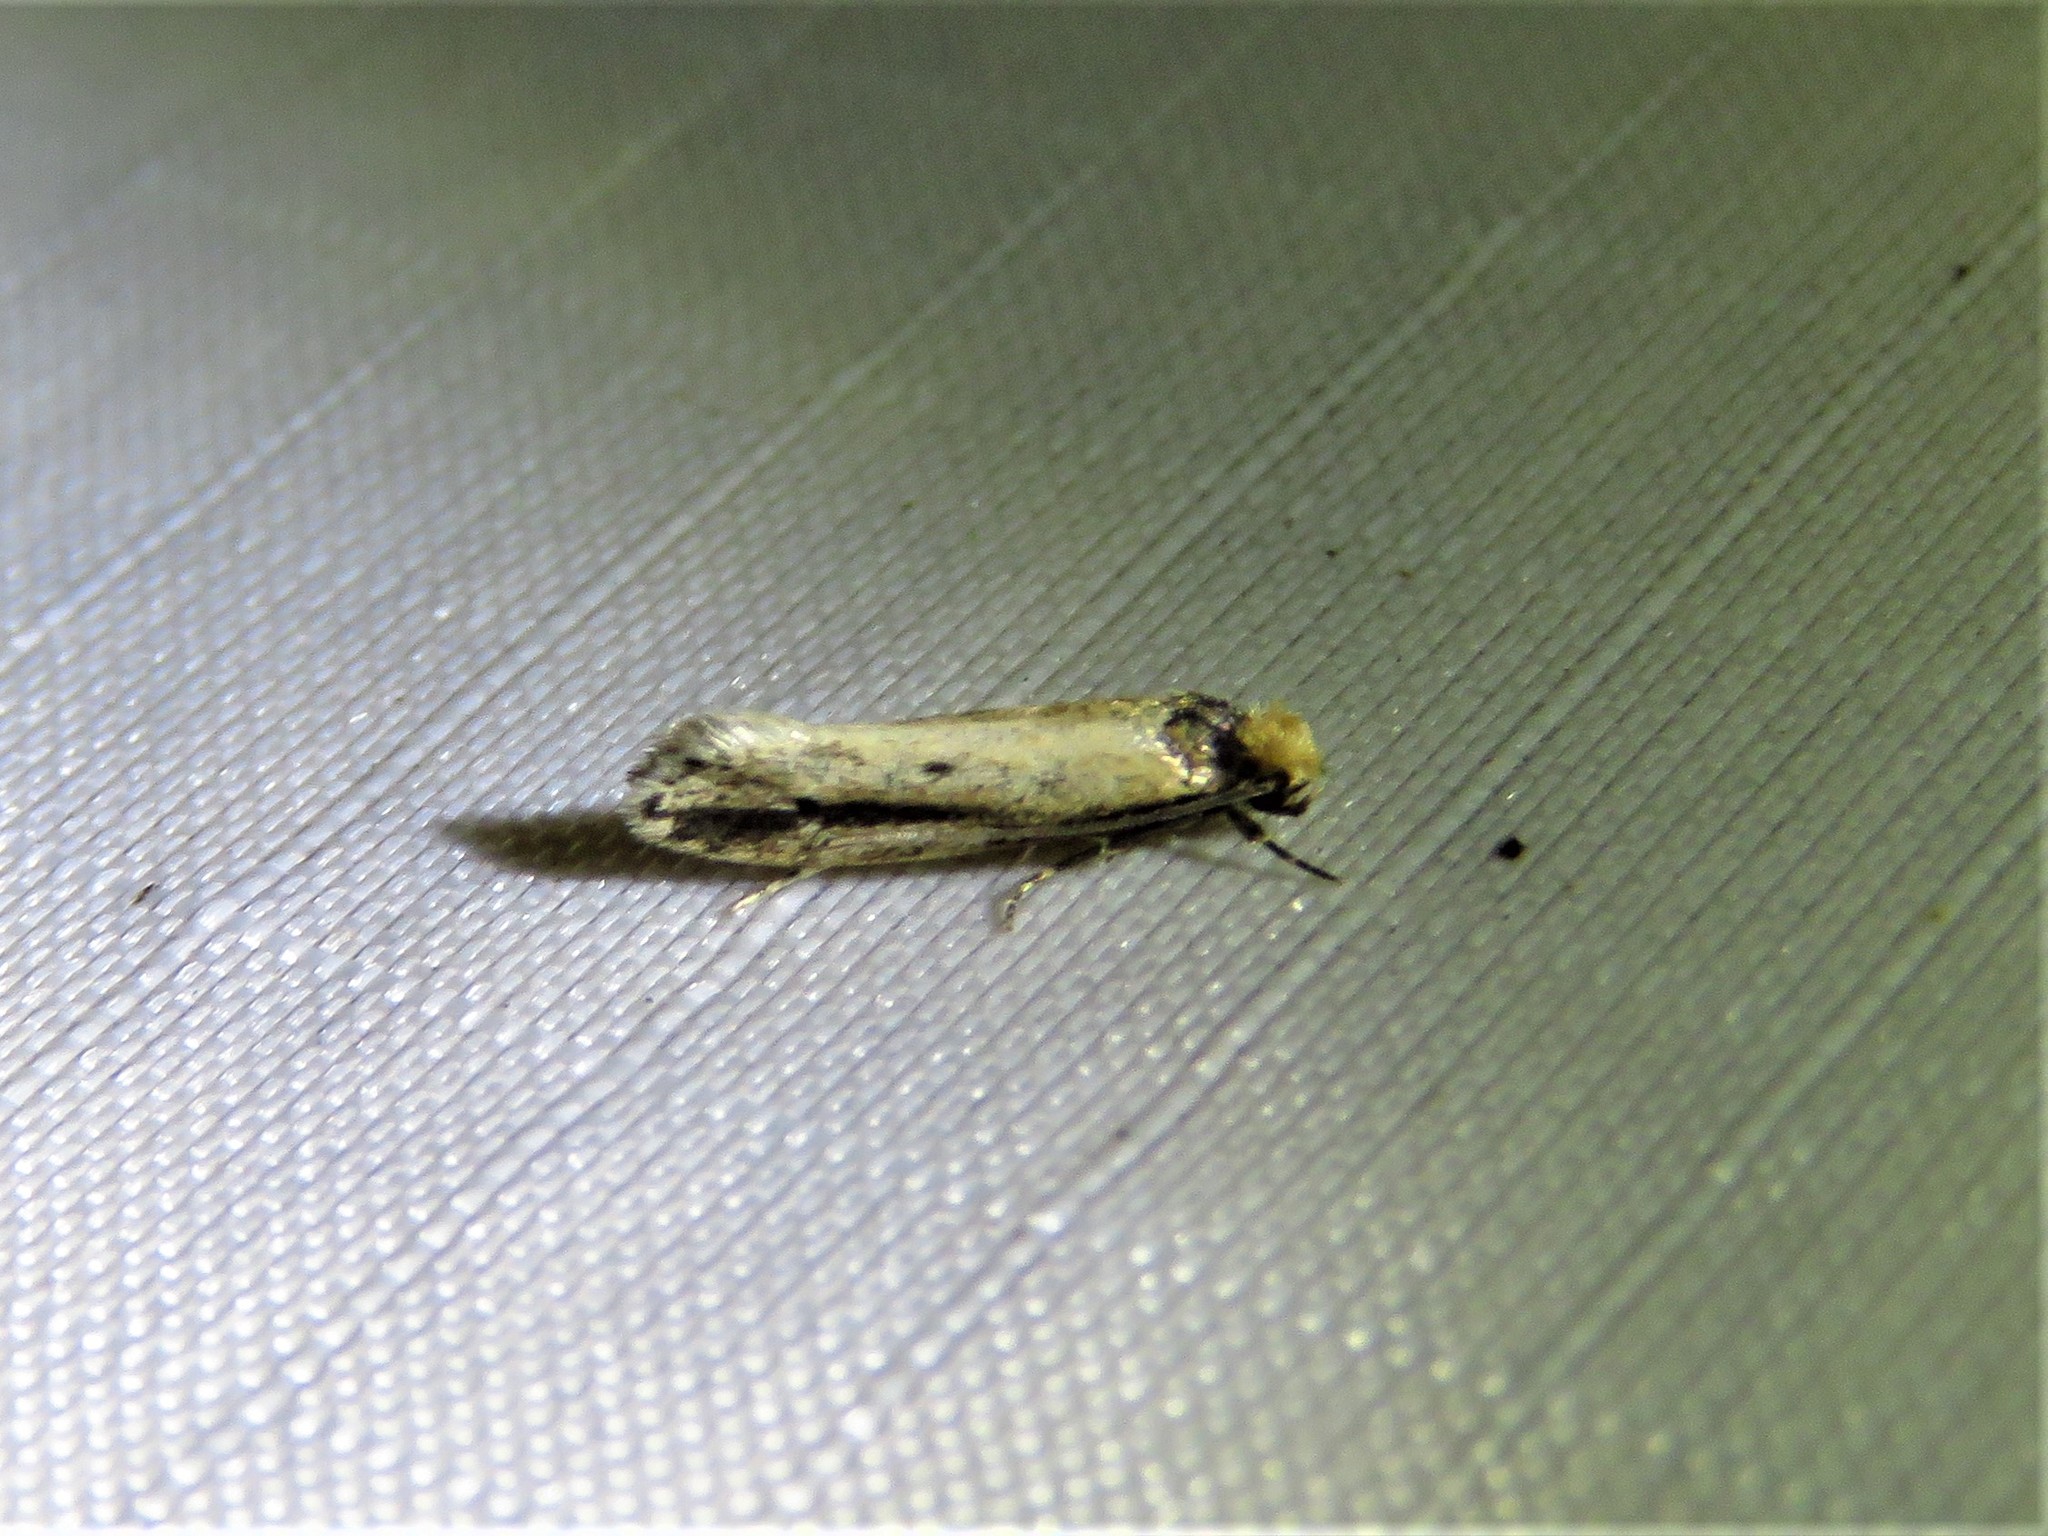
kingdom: Animalia
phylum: Arthropoda
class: Insecta
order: Lepidoptera
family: Tineidae
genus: Tinea
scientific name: Tinea apicimaculella
